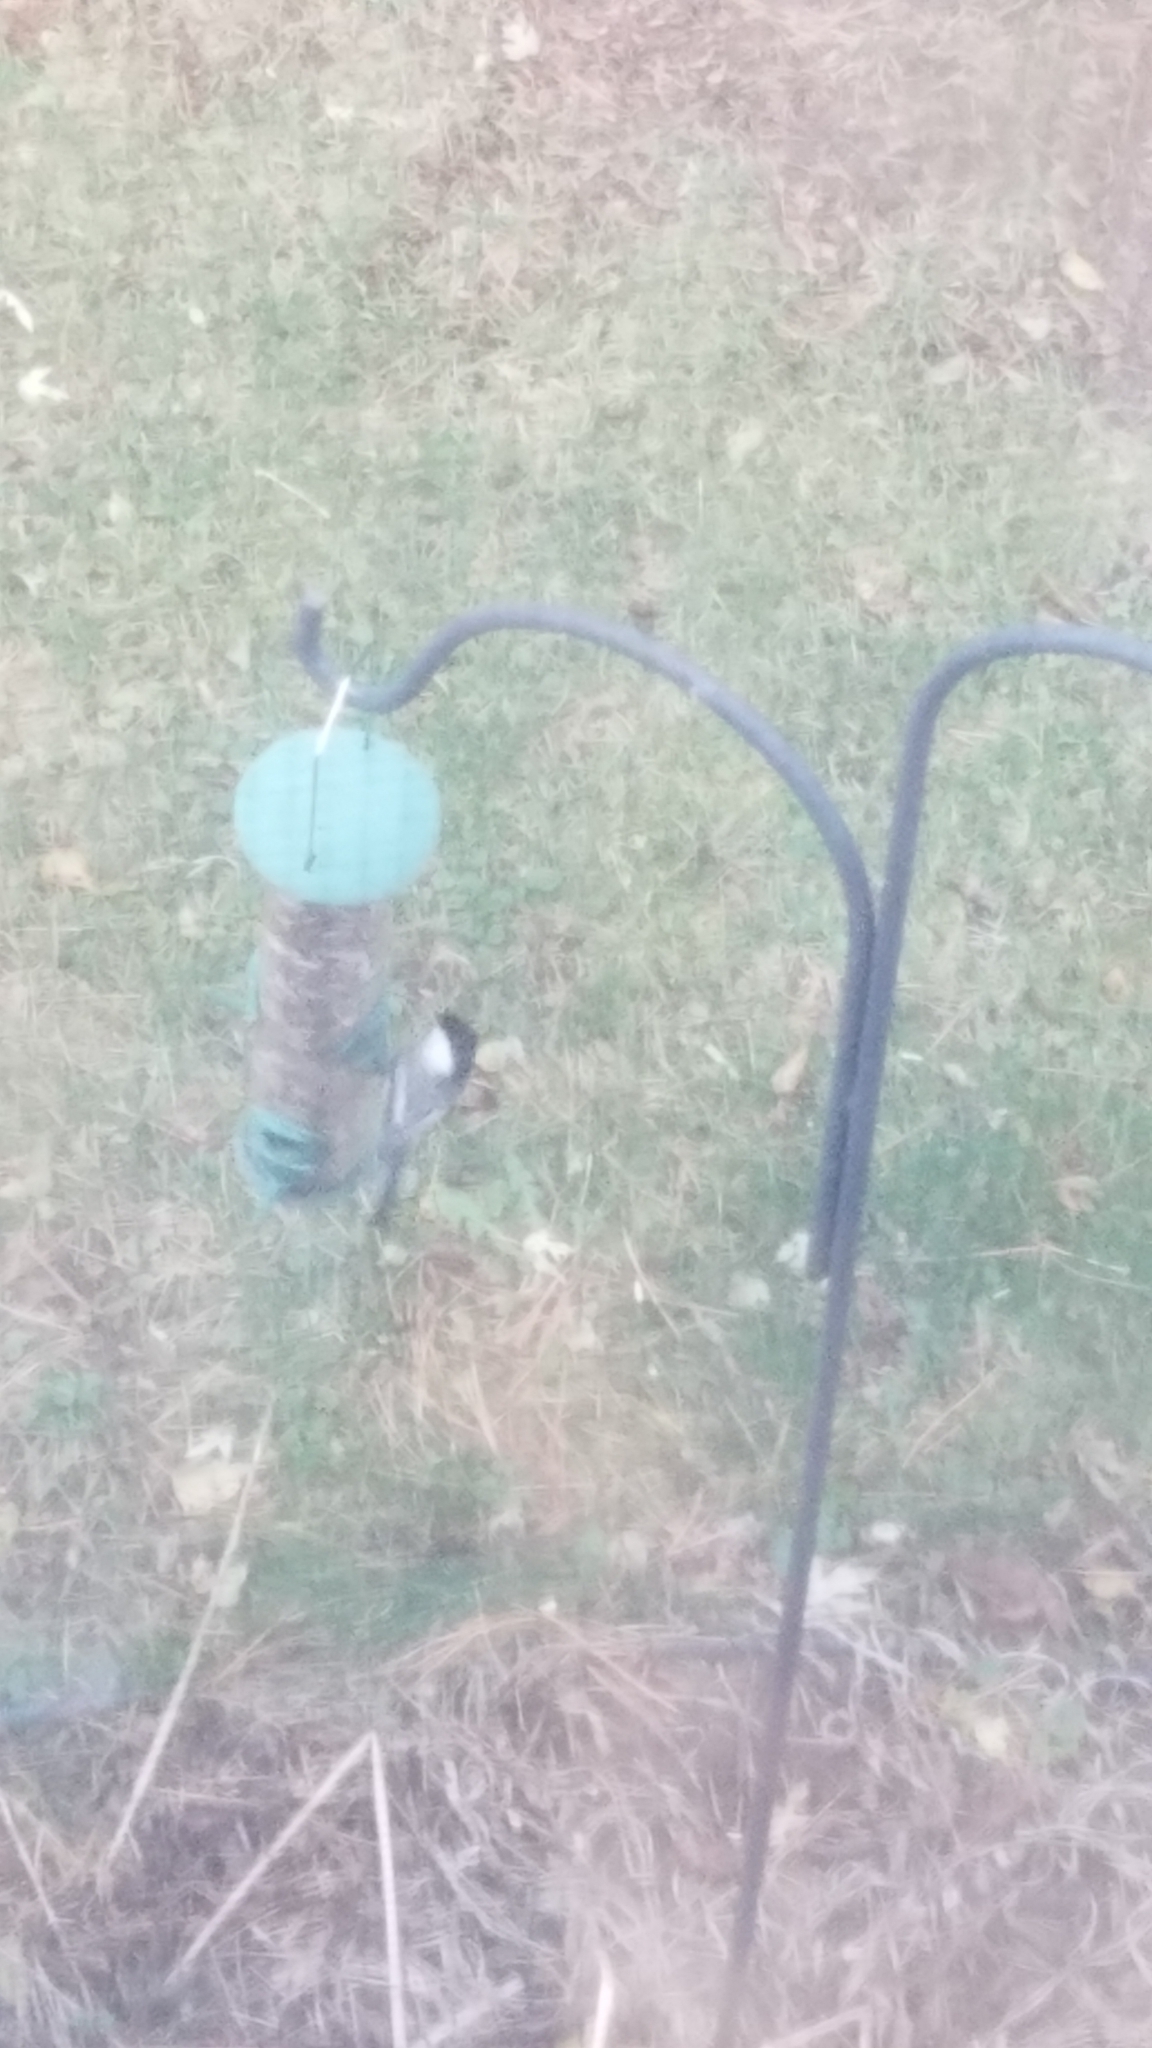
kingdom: Animalia
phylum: Chordata
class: Aves
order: Passeriformes
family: Paridae
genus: Poecile
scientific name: Poecile atricapillus
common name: Black-capped chickadee
